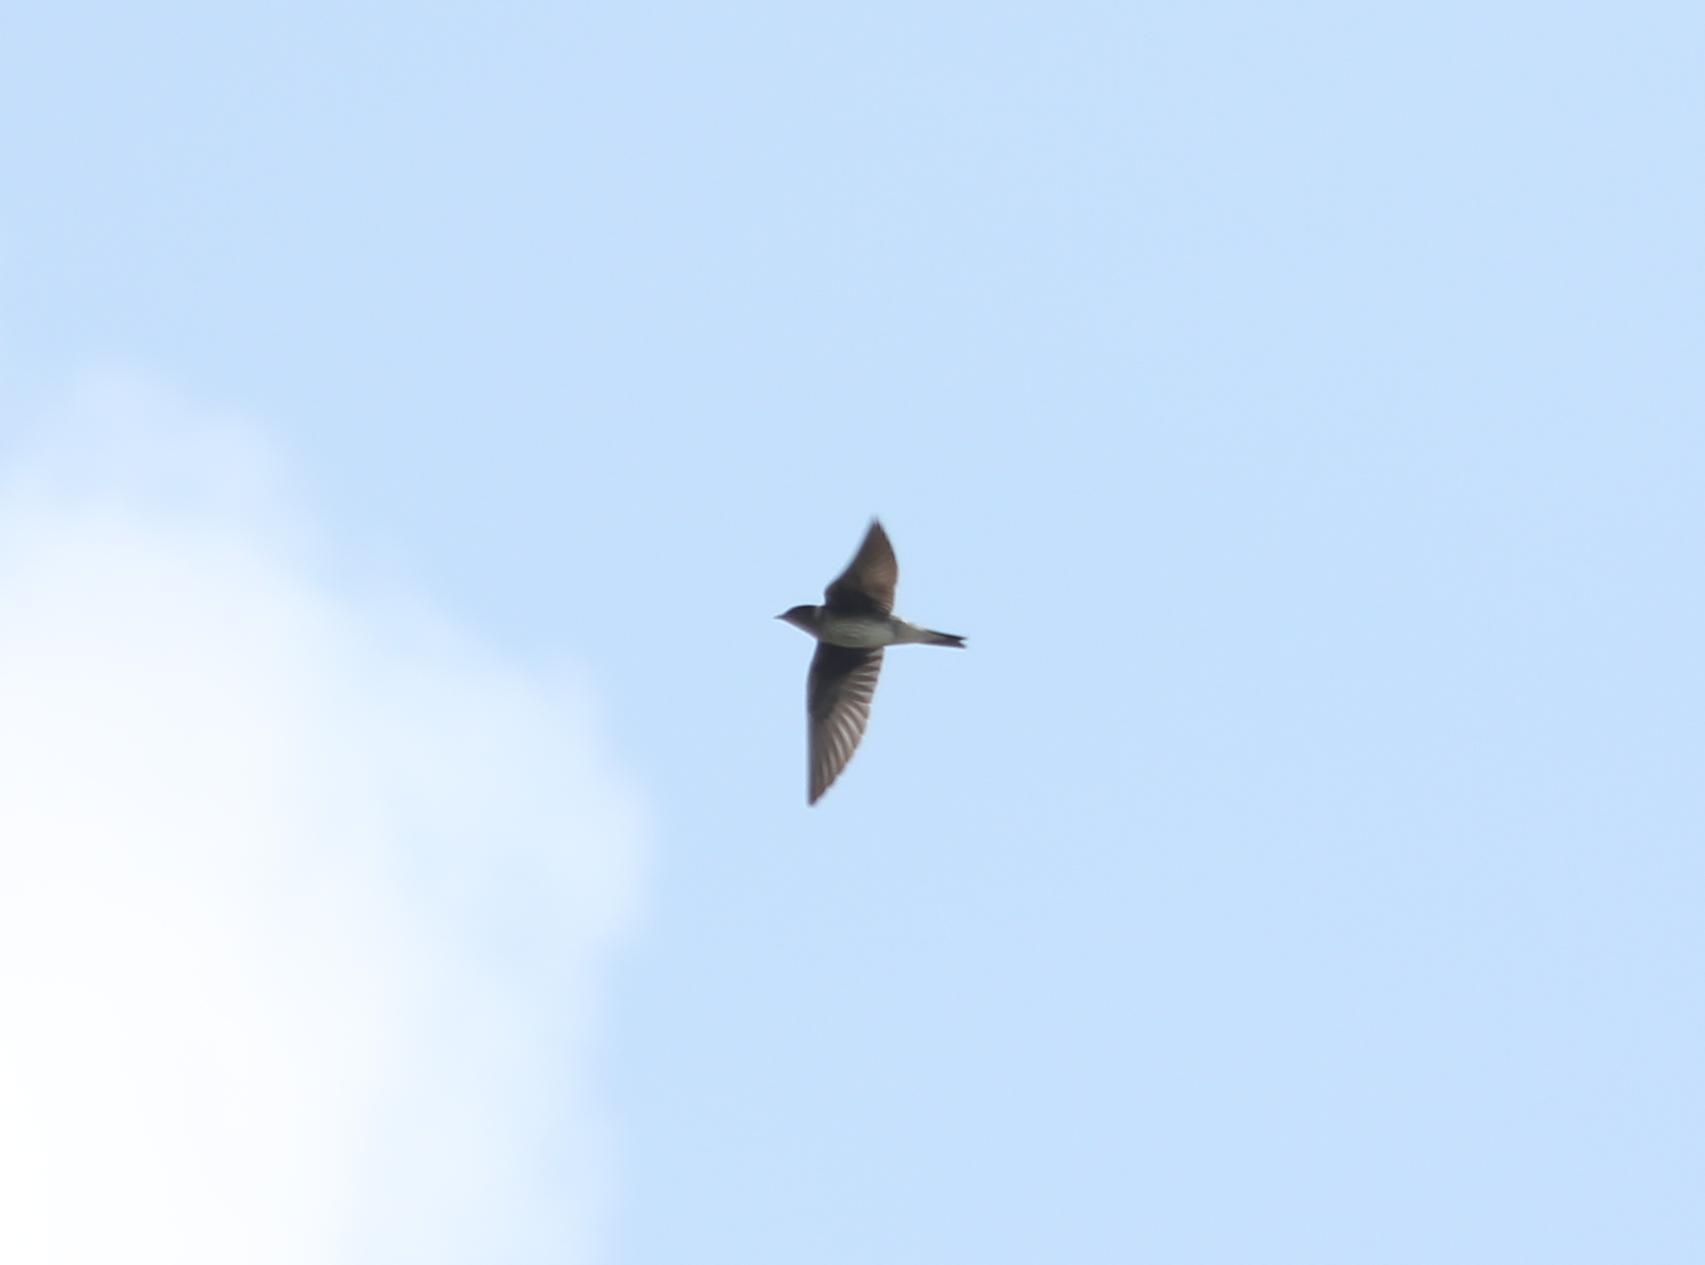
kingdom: Animalia
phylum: Chordata
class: Aves
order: Passeriformes
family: Hirundinidae
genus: Progne
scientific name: Progne subis
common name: Purple martin
